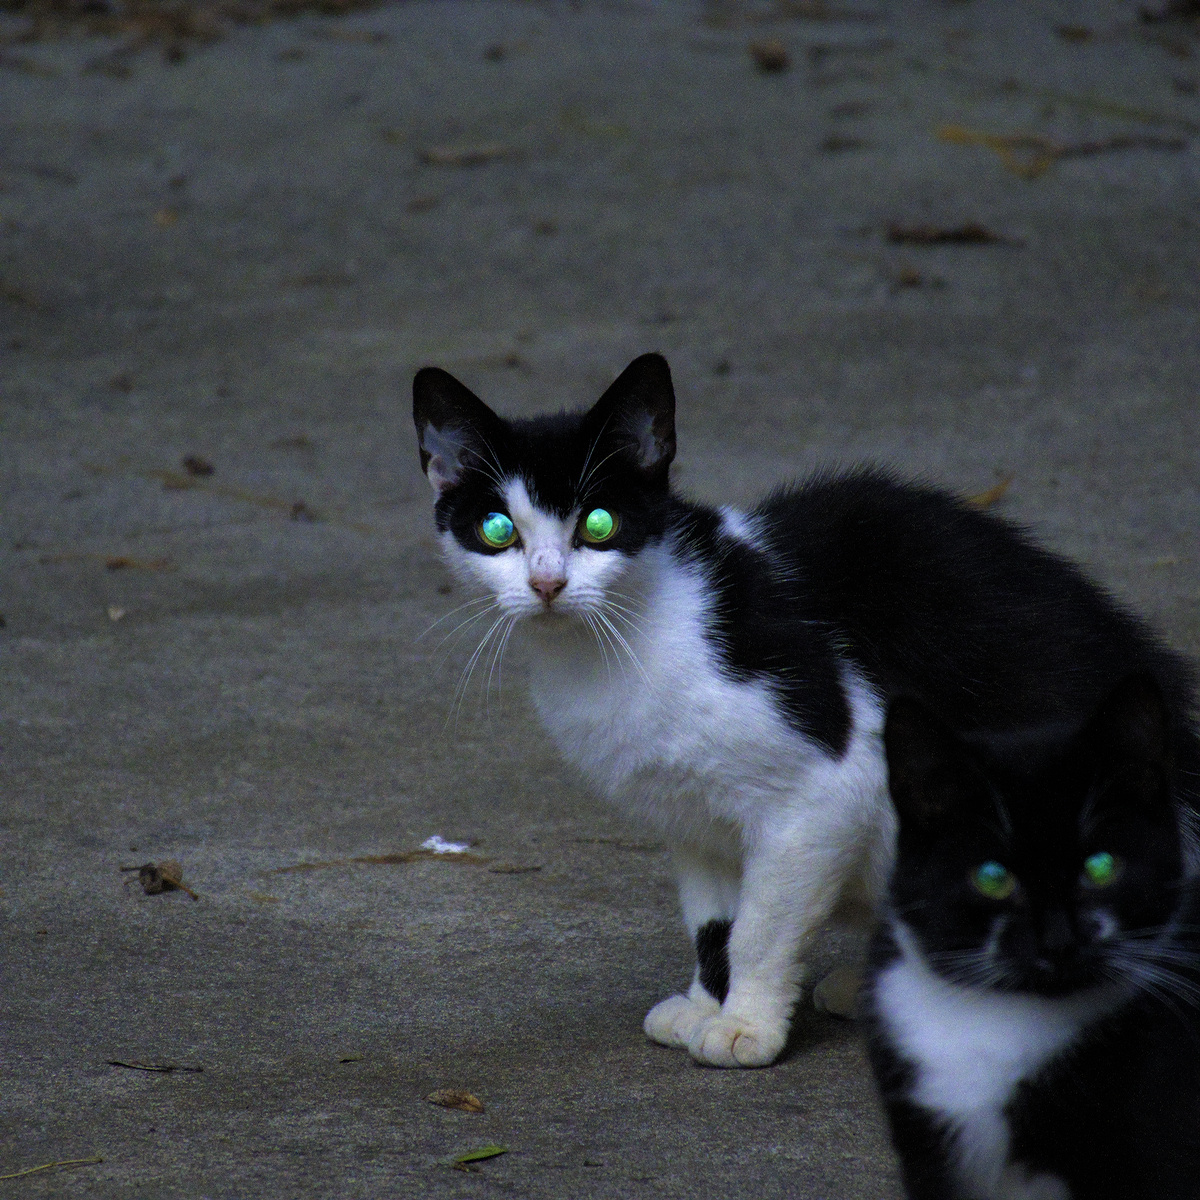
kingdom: Animalia
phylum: Chordata
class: Mammalia
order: Carnivora
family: Felidae
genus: Felis
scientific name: Felis catus
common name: Domestic cat
